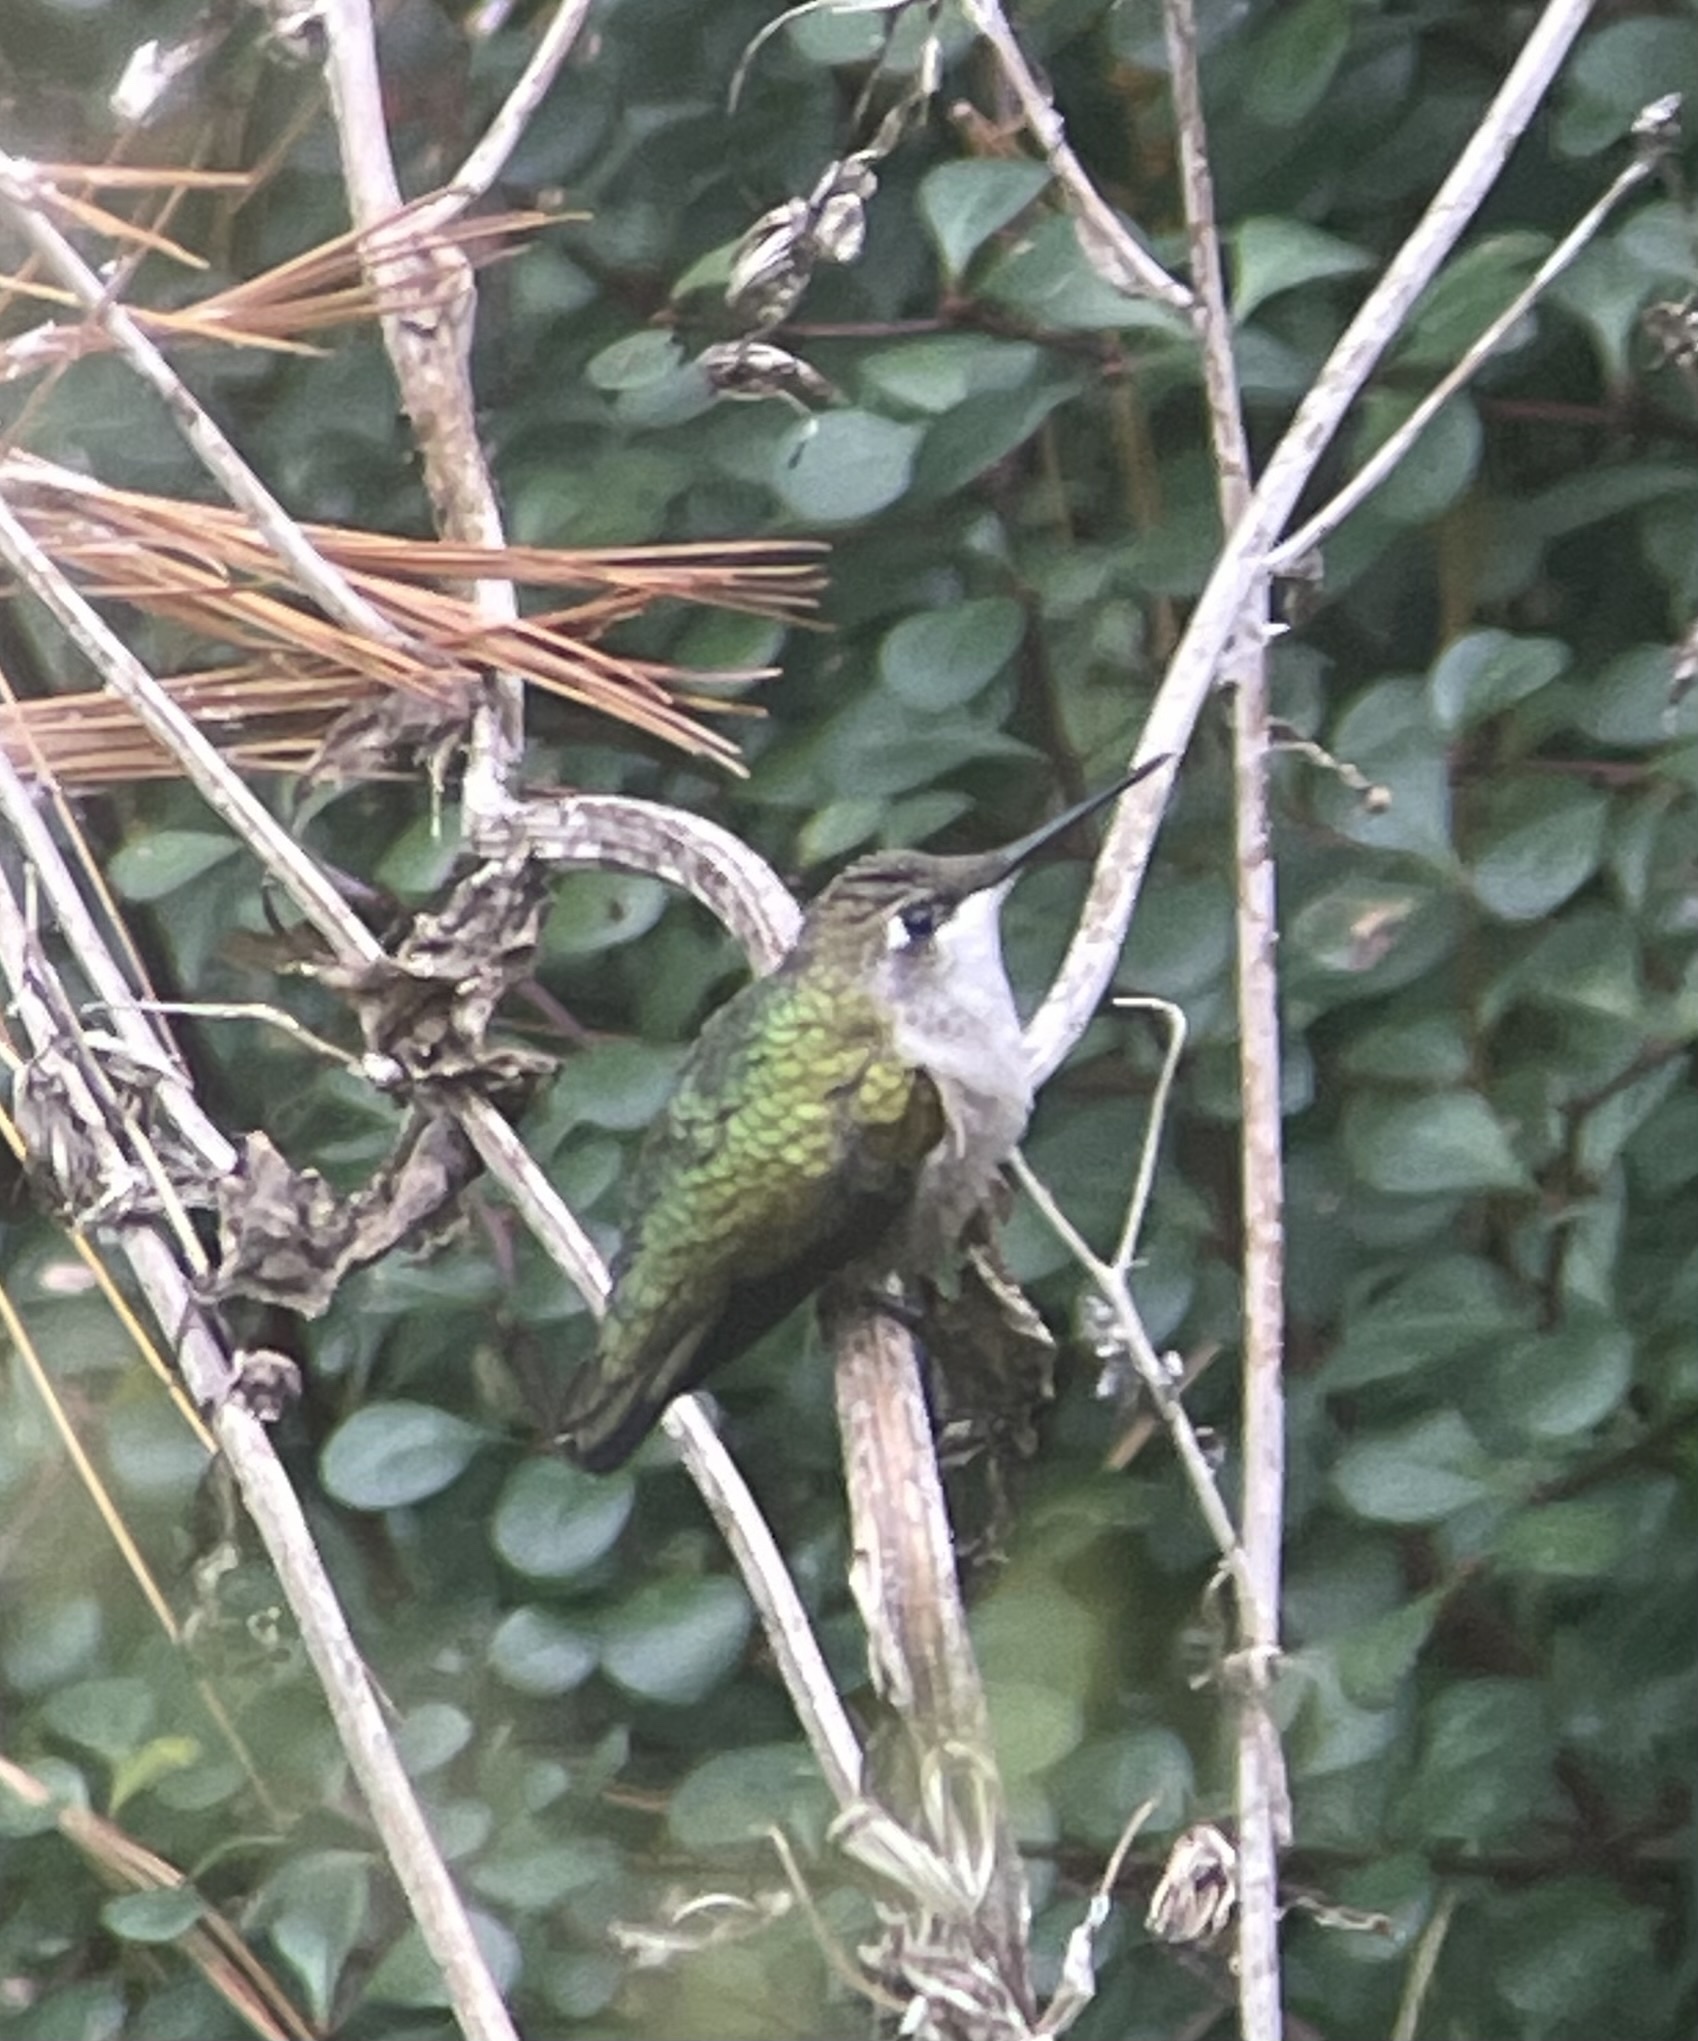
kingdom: Animalia
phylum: Chordata
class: Aves
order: Apodiformes
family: Trochilidae
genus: Archilochus
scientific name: Archilochus colubris
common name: Ruby-throated hummingbird
